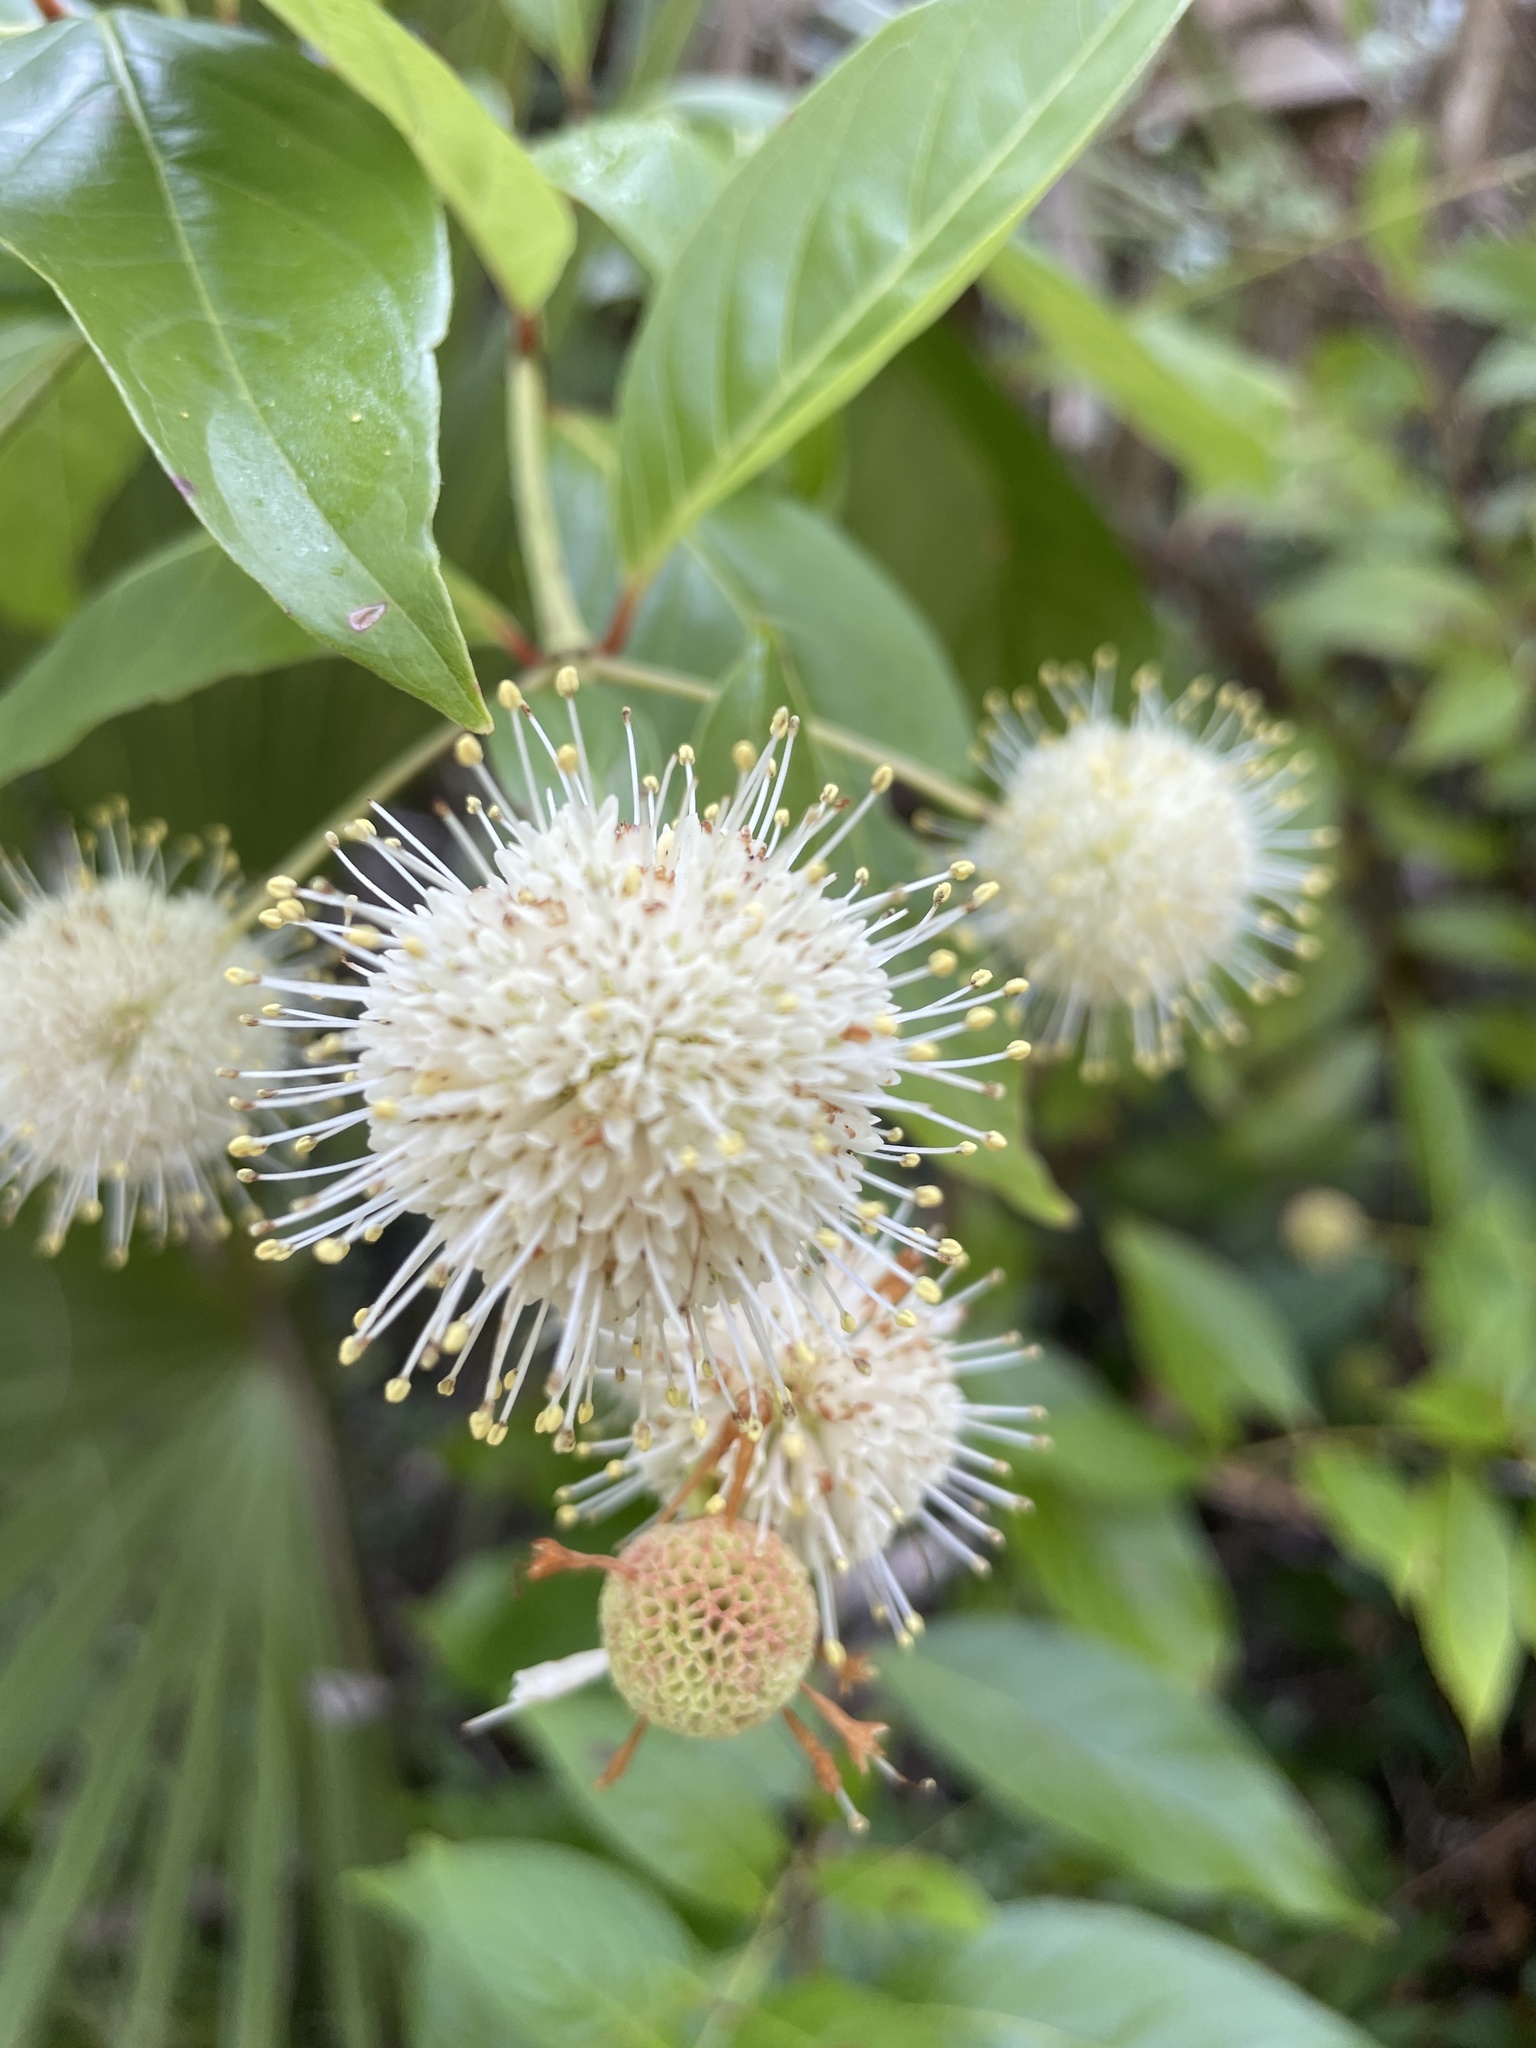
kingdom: Plantae
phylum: Tracheophyta
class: Magnoliopsida
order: Gentianales
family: Rubiaceae
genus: Cephalanthus
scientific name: Cephalanthus occidentalis
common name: Button-willow
